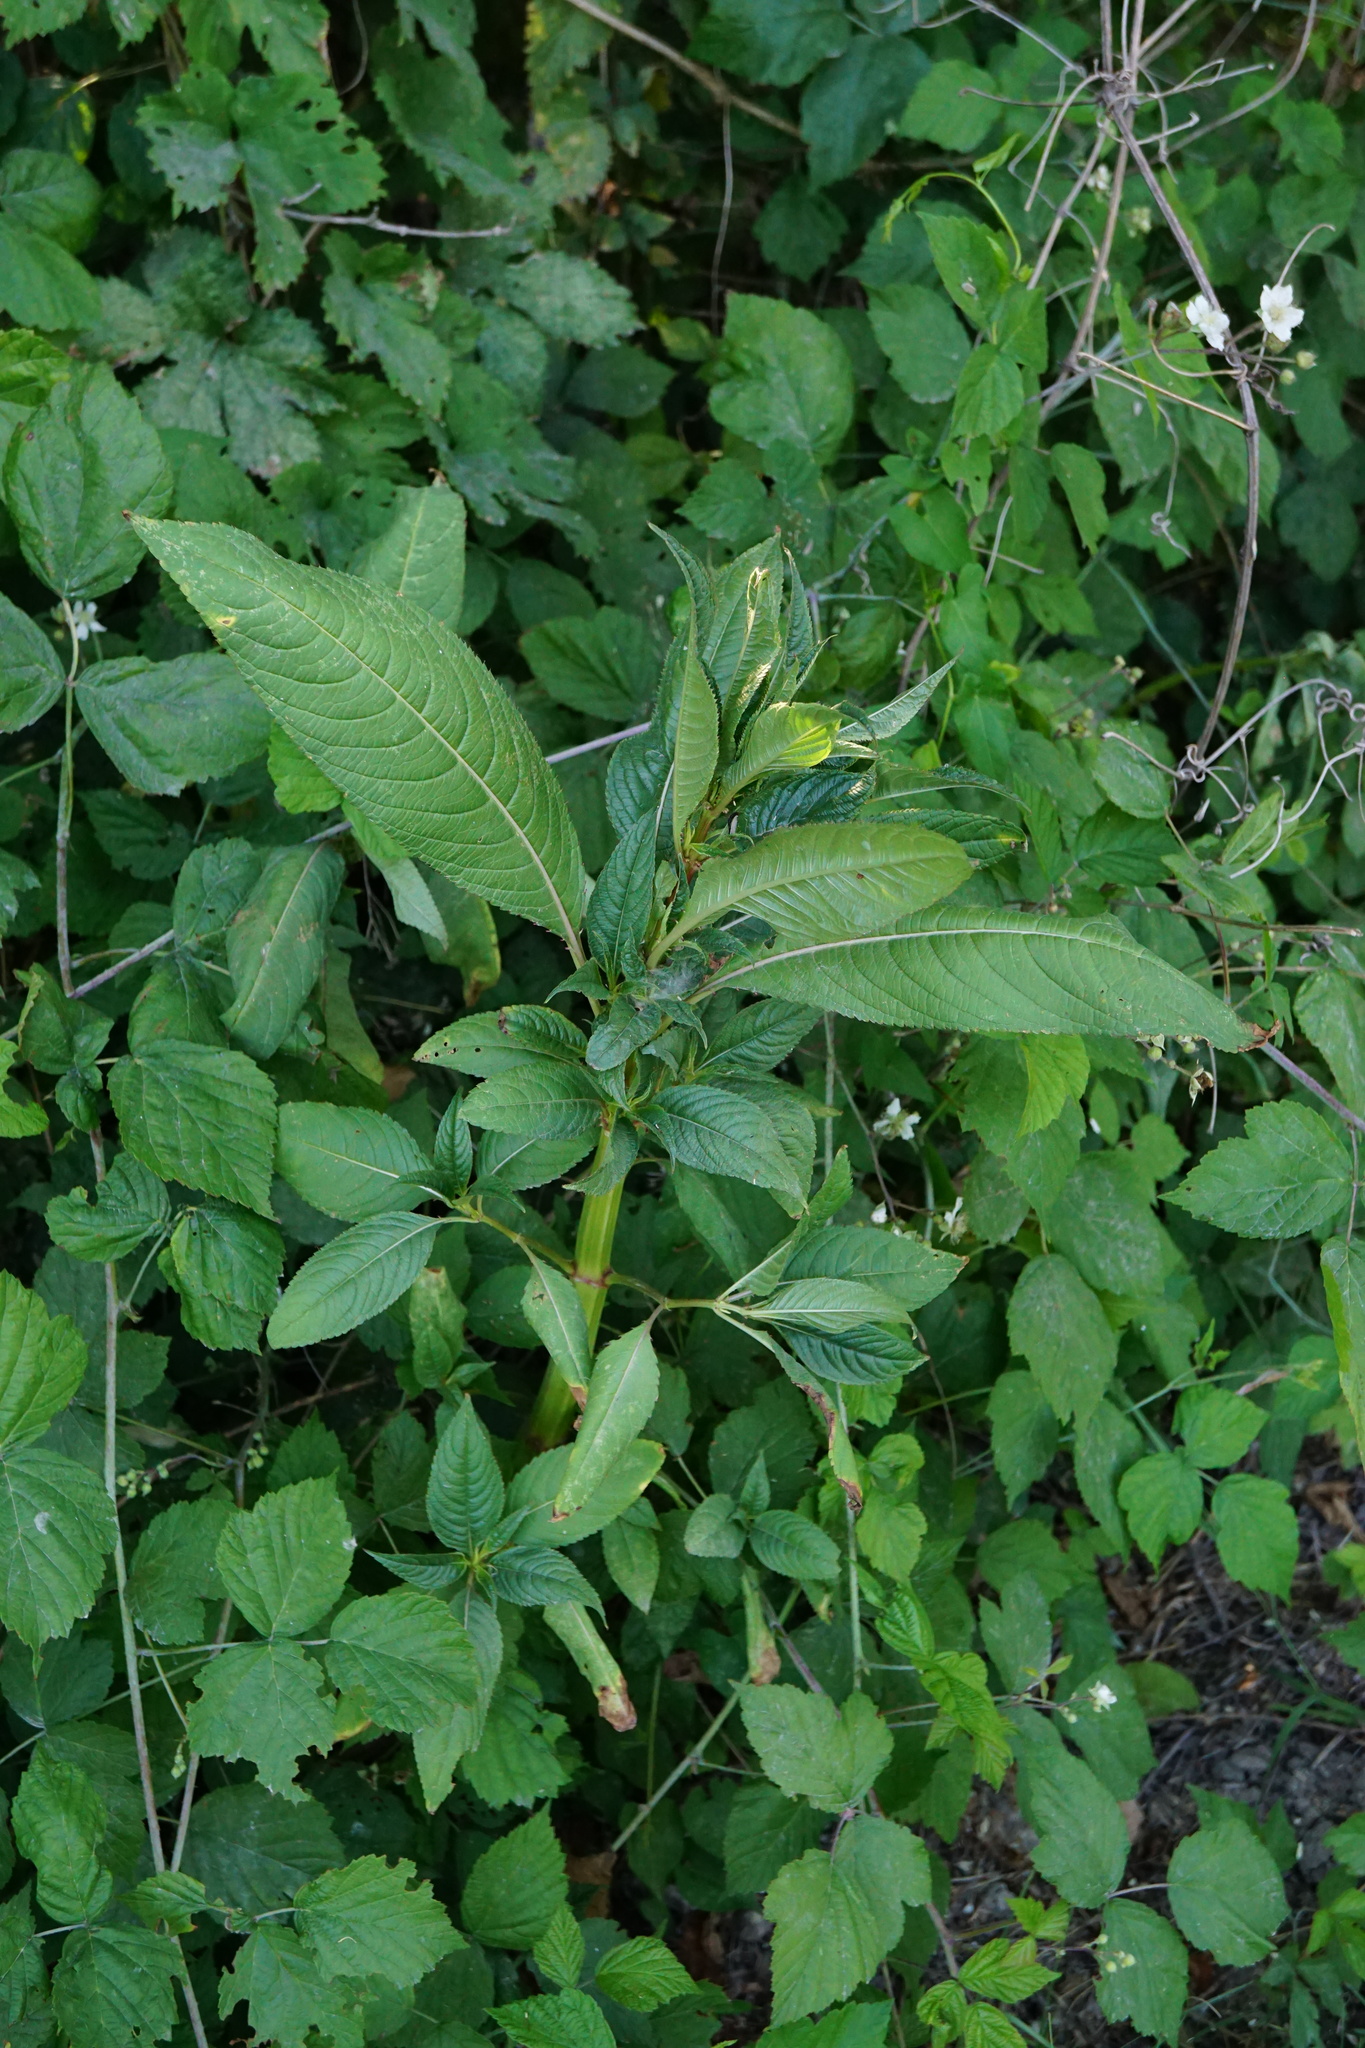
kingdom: Plantae
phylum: Tracheophyta
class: Magnoliopsida
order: Ericales
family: Balsaminaceae
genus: Impatiens
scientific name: Impatiens glandulifera
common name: Himalayan balsam
